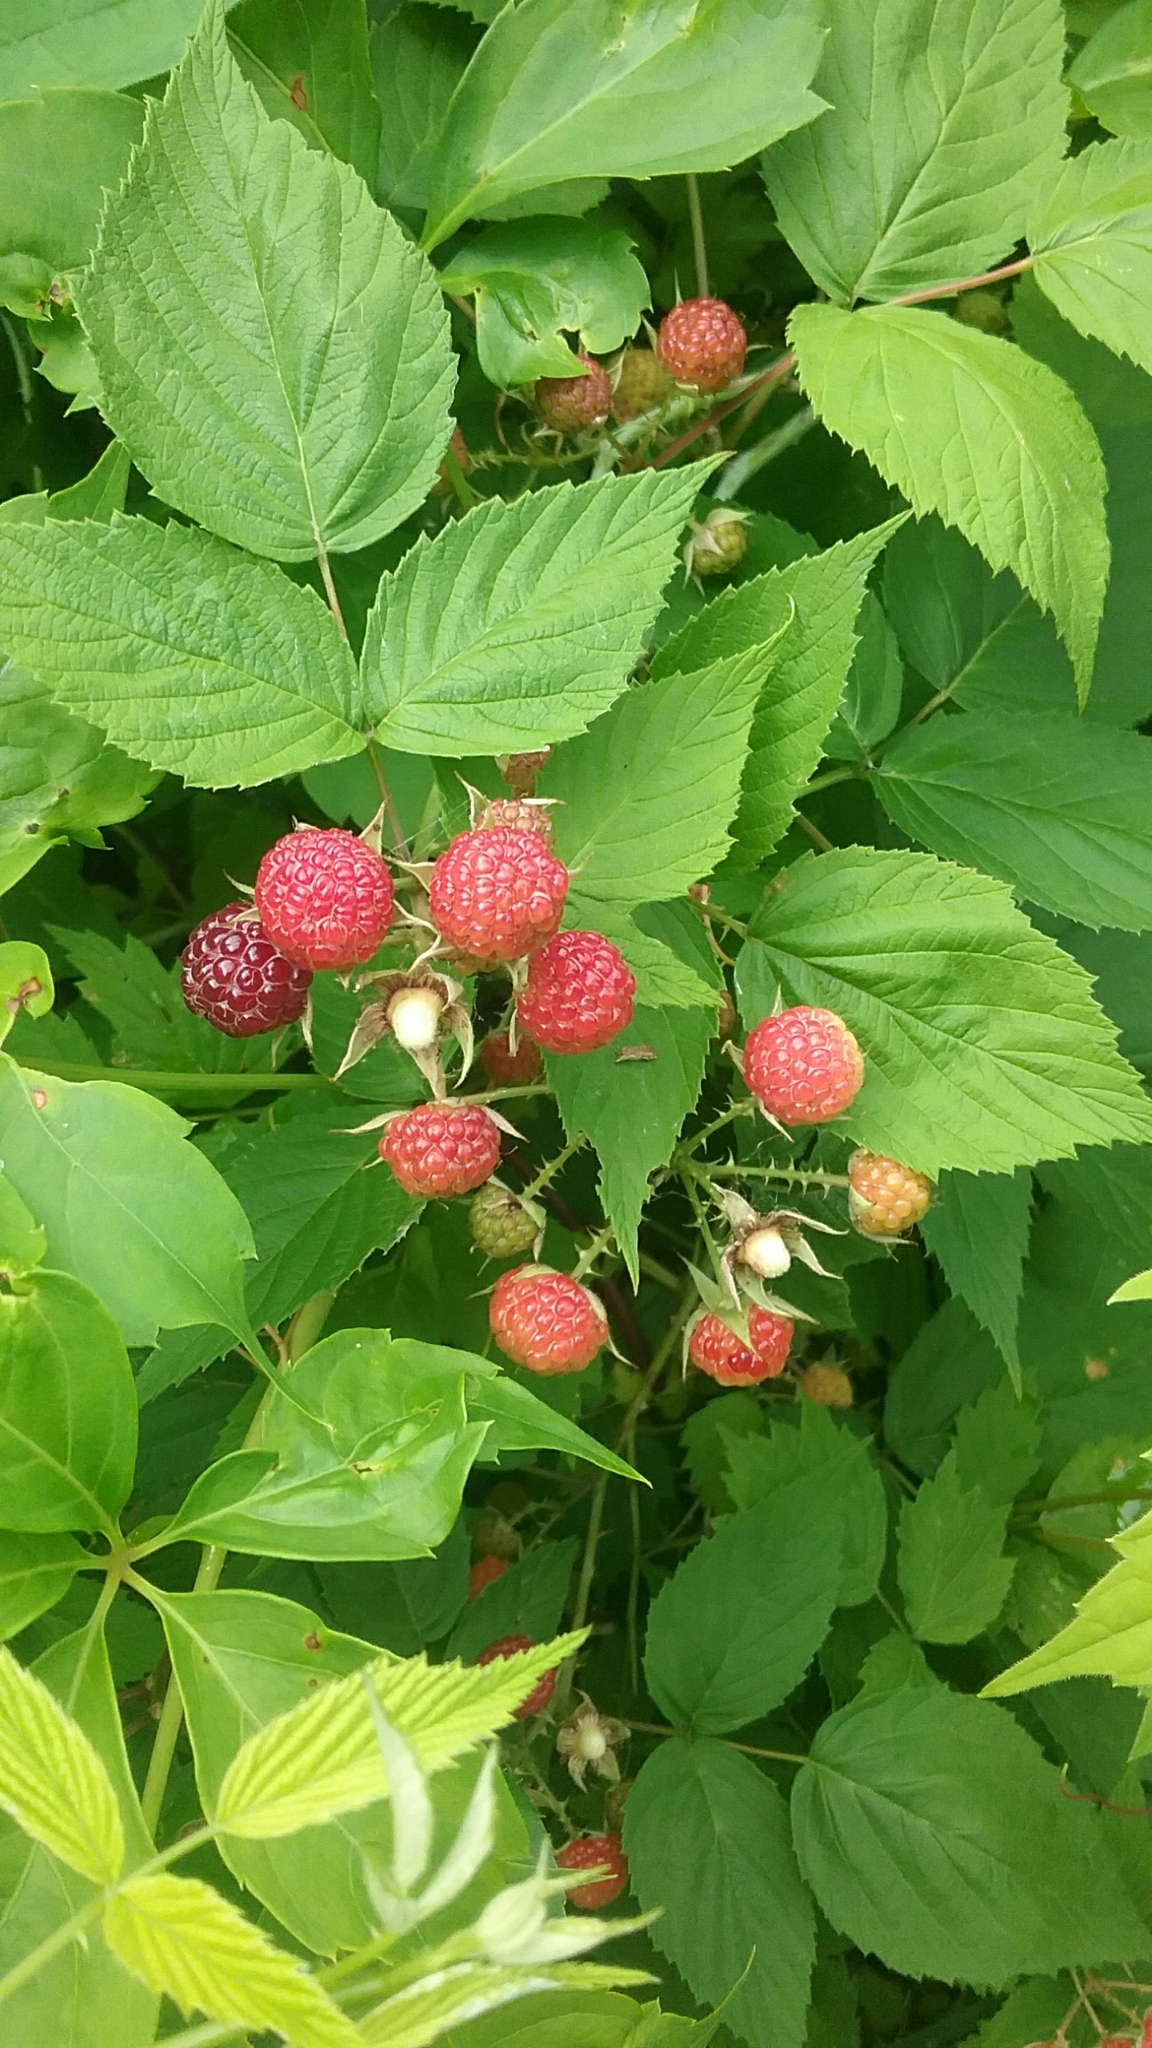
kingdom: Plantae
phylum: Tracheophyta
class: Magnoliopsida
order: Rosales
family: Rosaceae
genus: Rubus
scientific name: Rubus occidentalis
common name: Black raspberry
